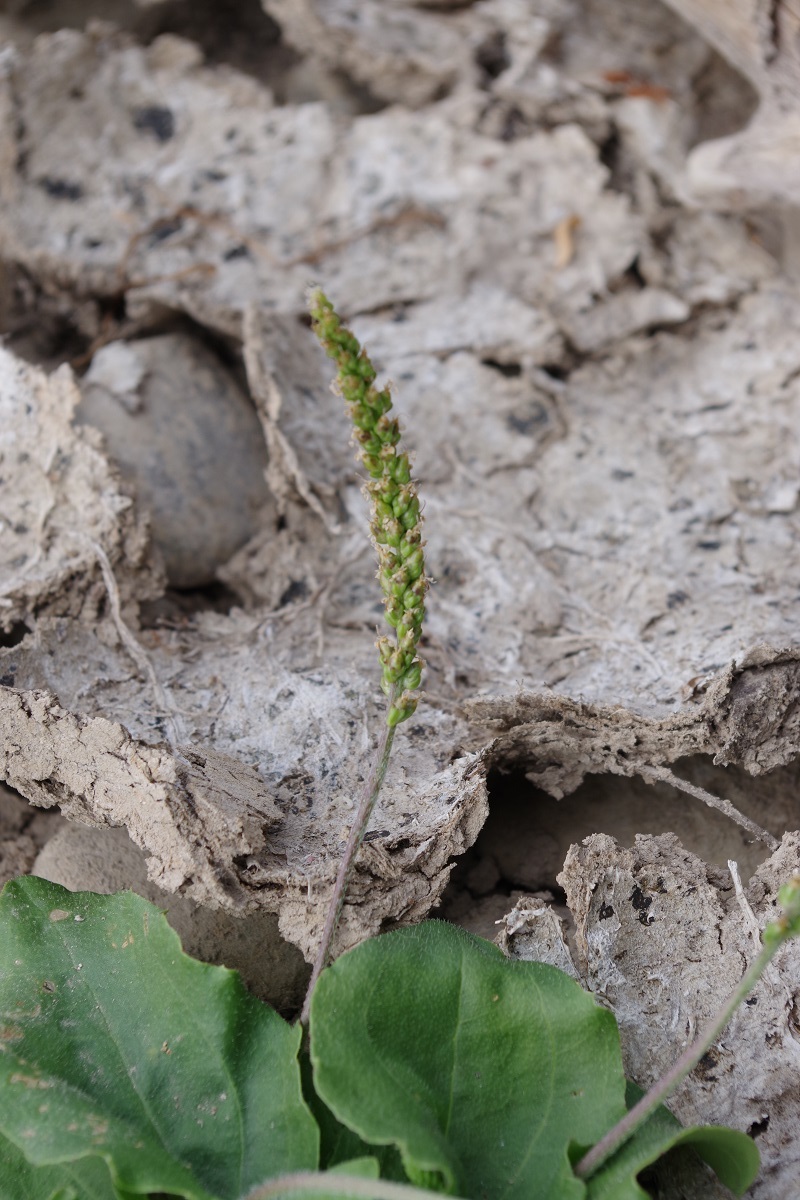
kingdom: Plantae
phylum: Tracheophyta
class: Magnoliopsida
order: Lamiales
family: Plantaginaceae
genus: Plantago
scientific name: Plantago major
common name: Common plantain
